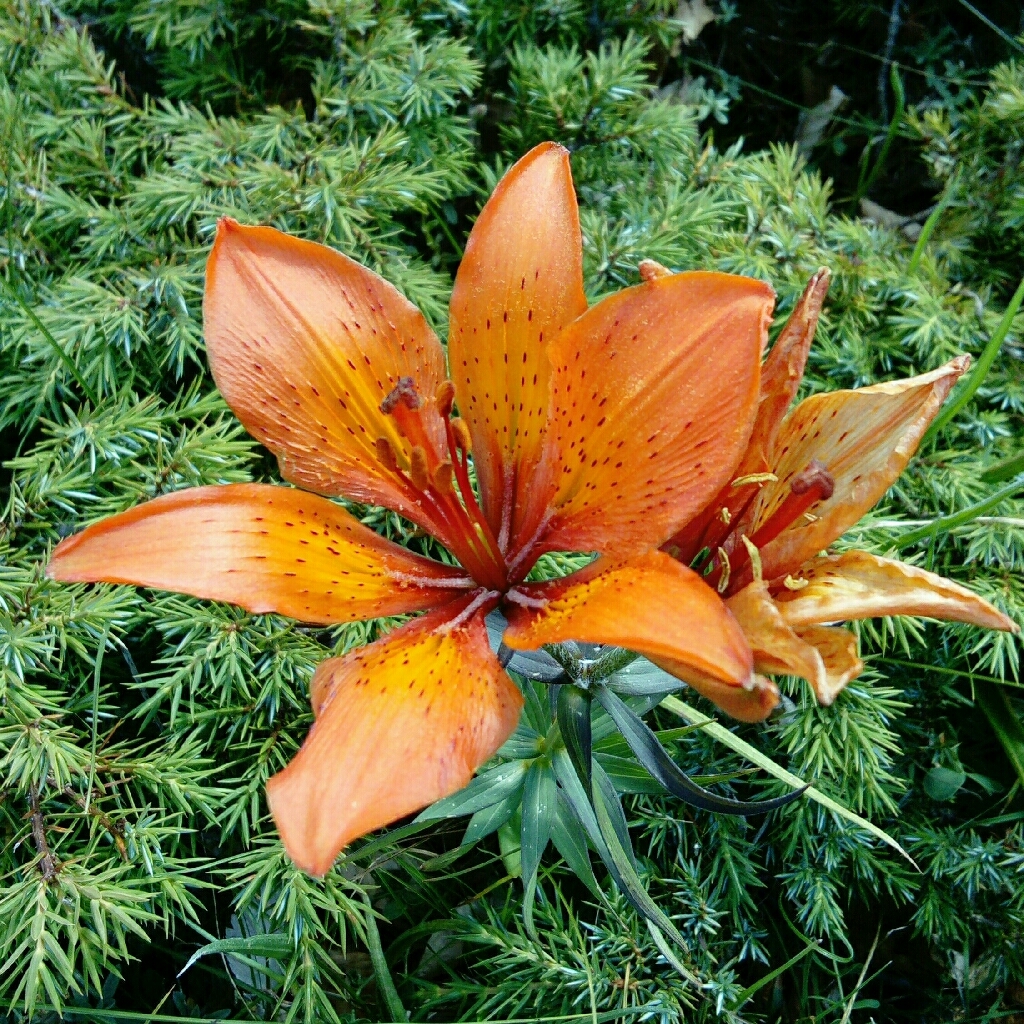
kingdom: Plantae
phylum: Tracheophyta
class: Liliopsida
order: Liliales
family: Liliaceae
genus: Lilium
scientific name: Lilium bulbiferum
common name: Orange lily
